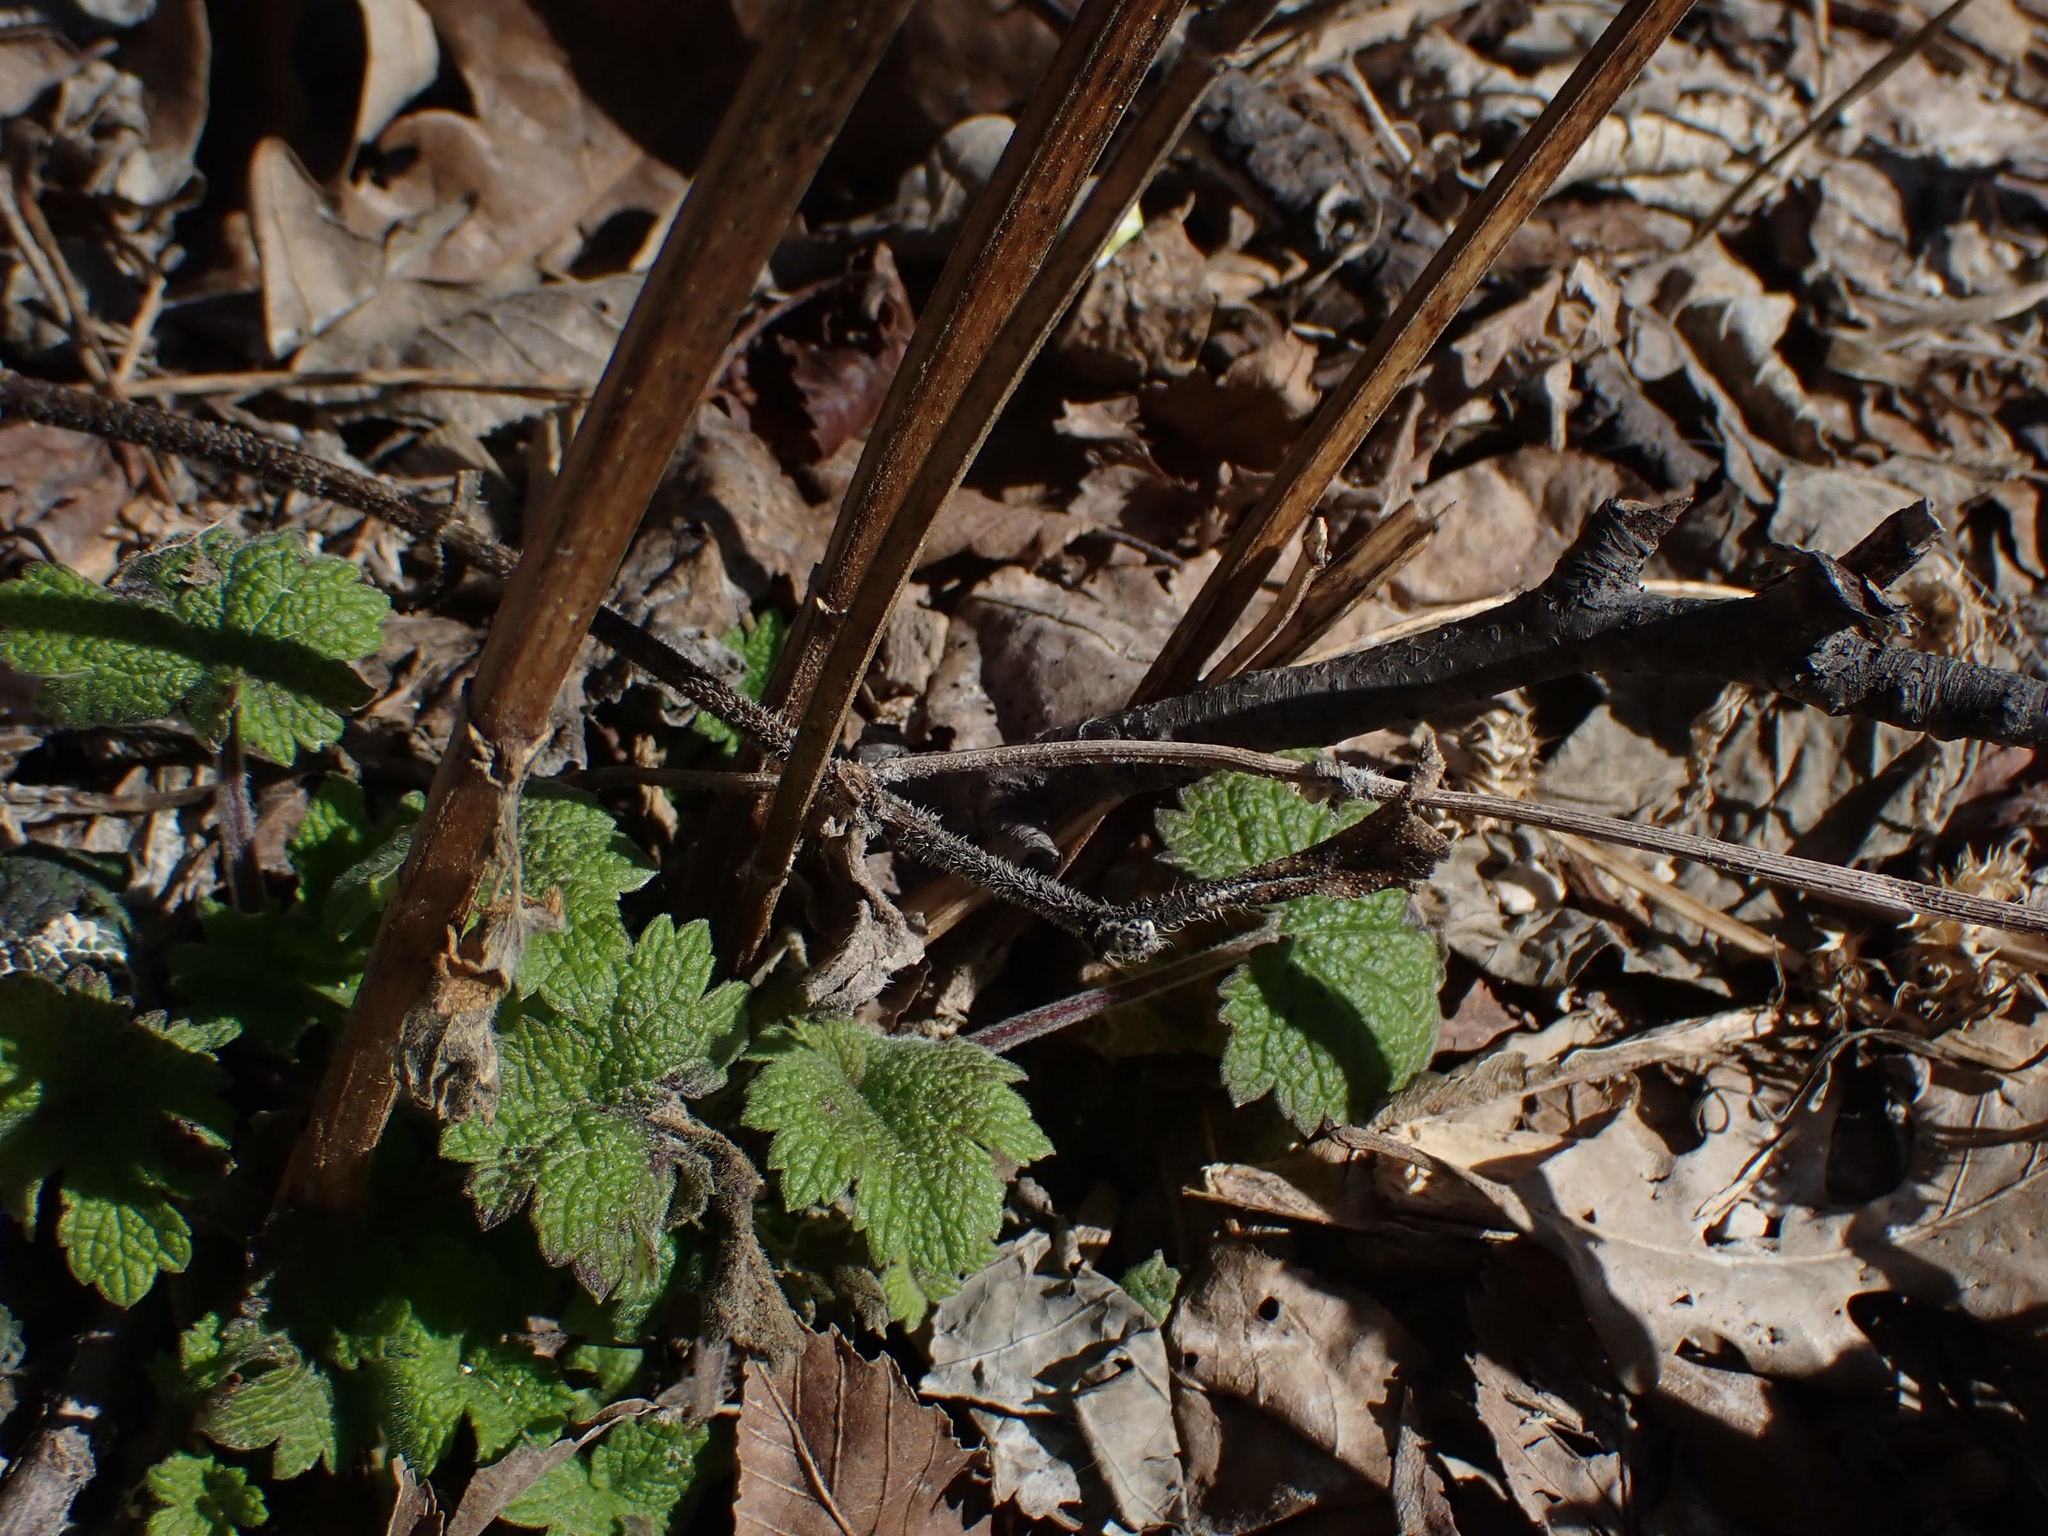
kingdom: Plantae
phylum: Tracheophyta
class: Magnoliopsida
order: Lamiales
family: Lamiaceae
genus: Leonurus
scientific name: Leonurus cardiaca
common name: Motherwort
